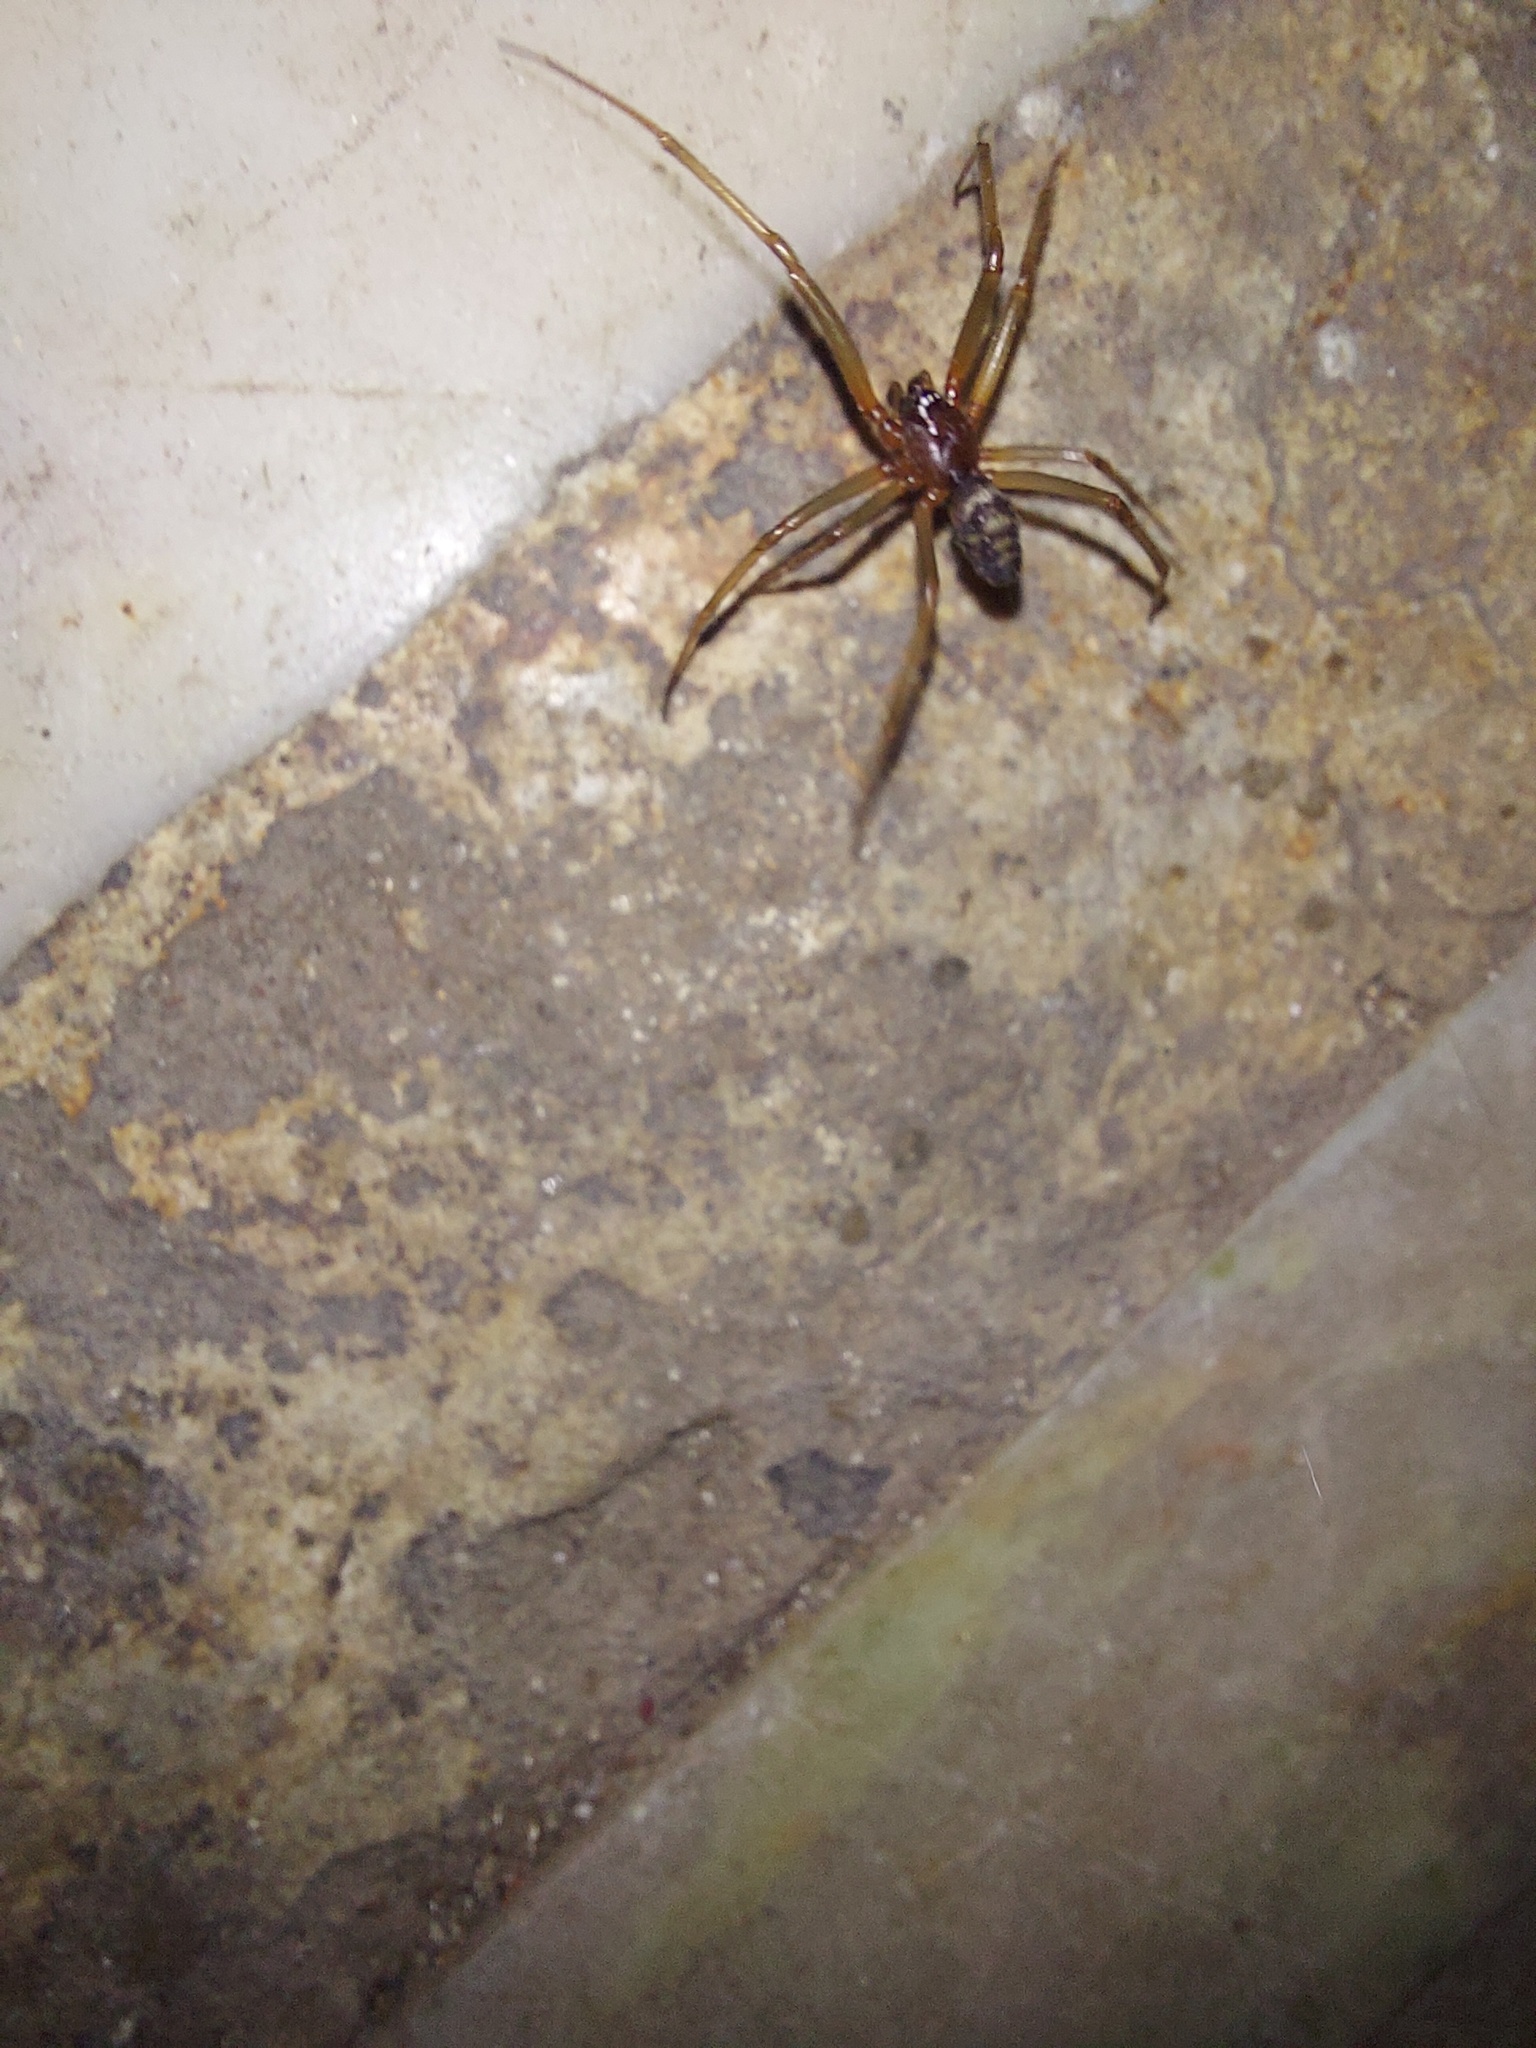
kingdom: Animalia
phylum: Arthropoda
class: Arachnida
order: Araneae
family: Theridiidae
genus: Steatoda
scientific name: Steatoda grossa
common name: False black widow
